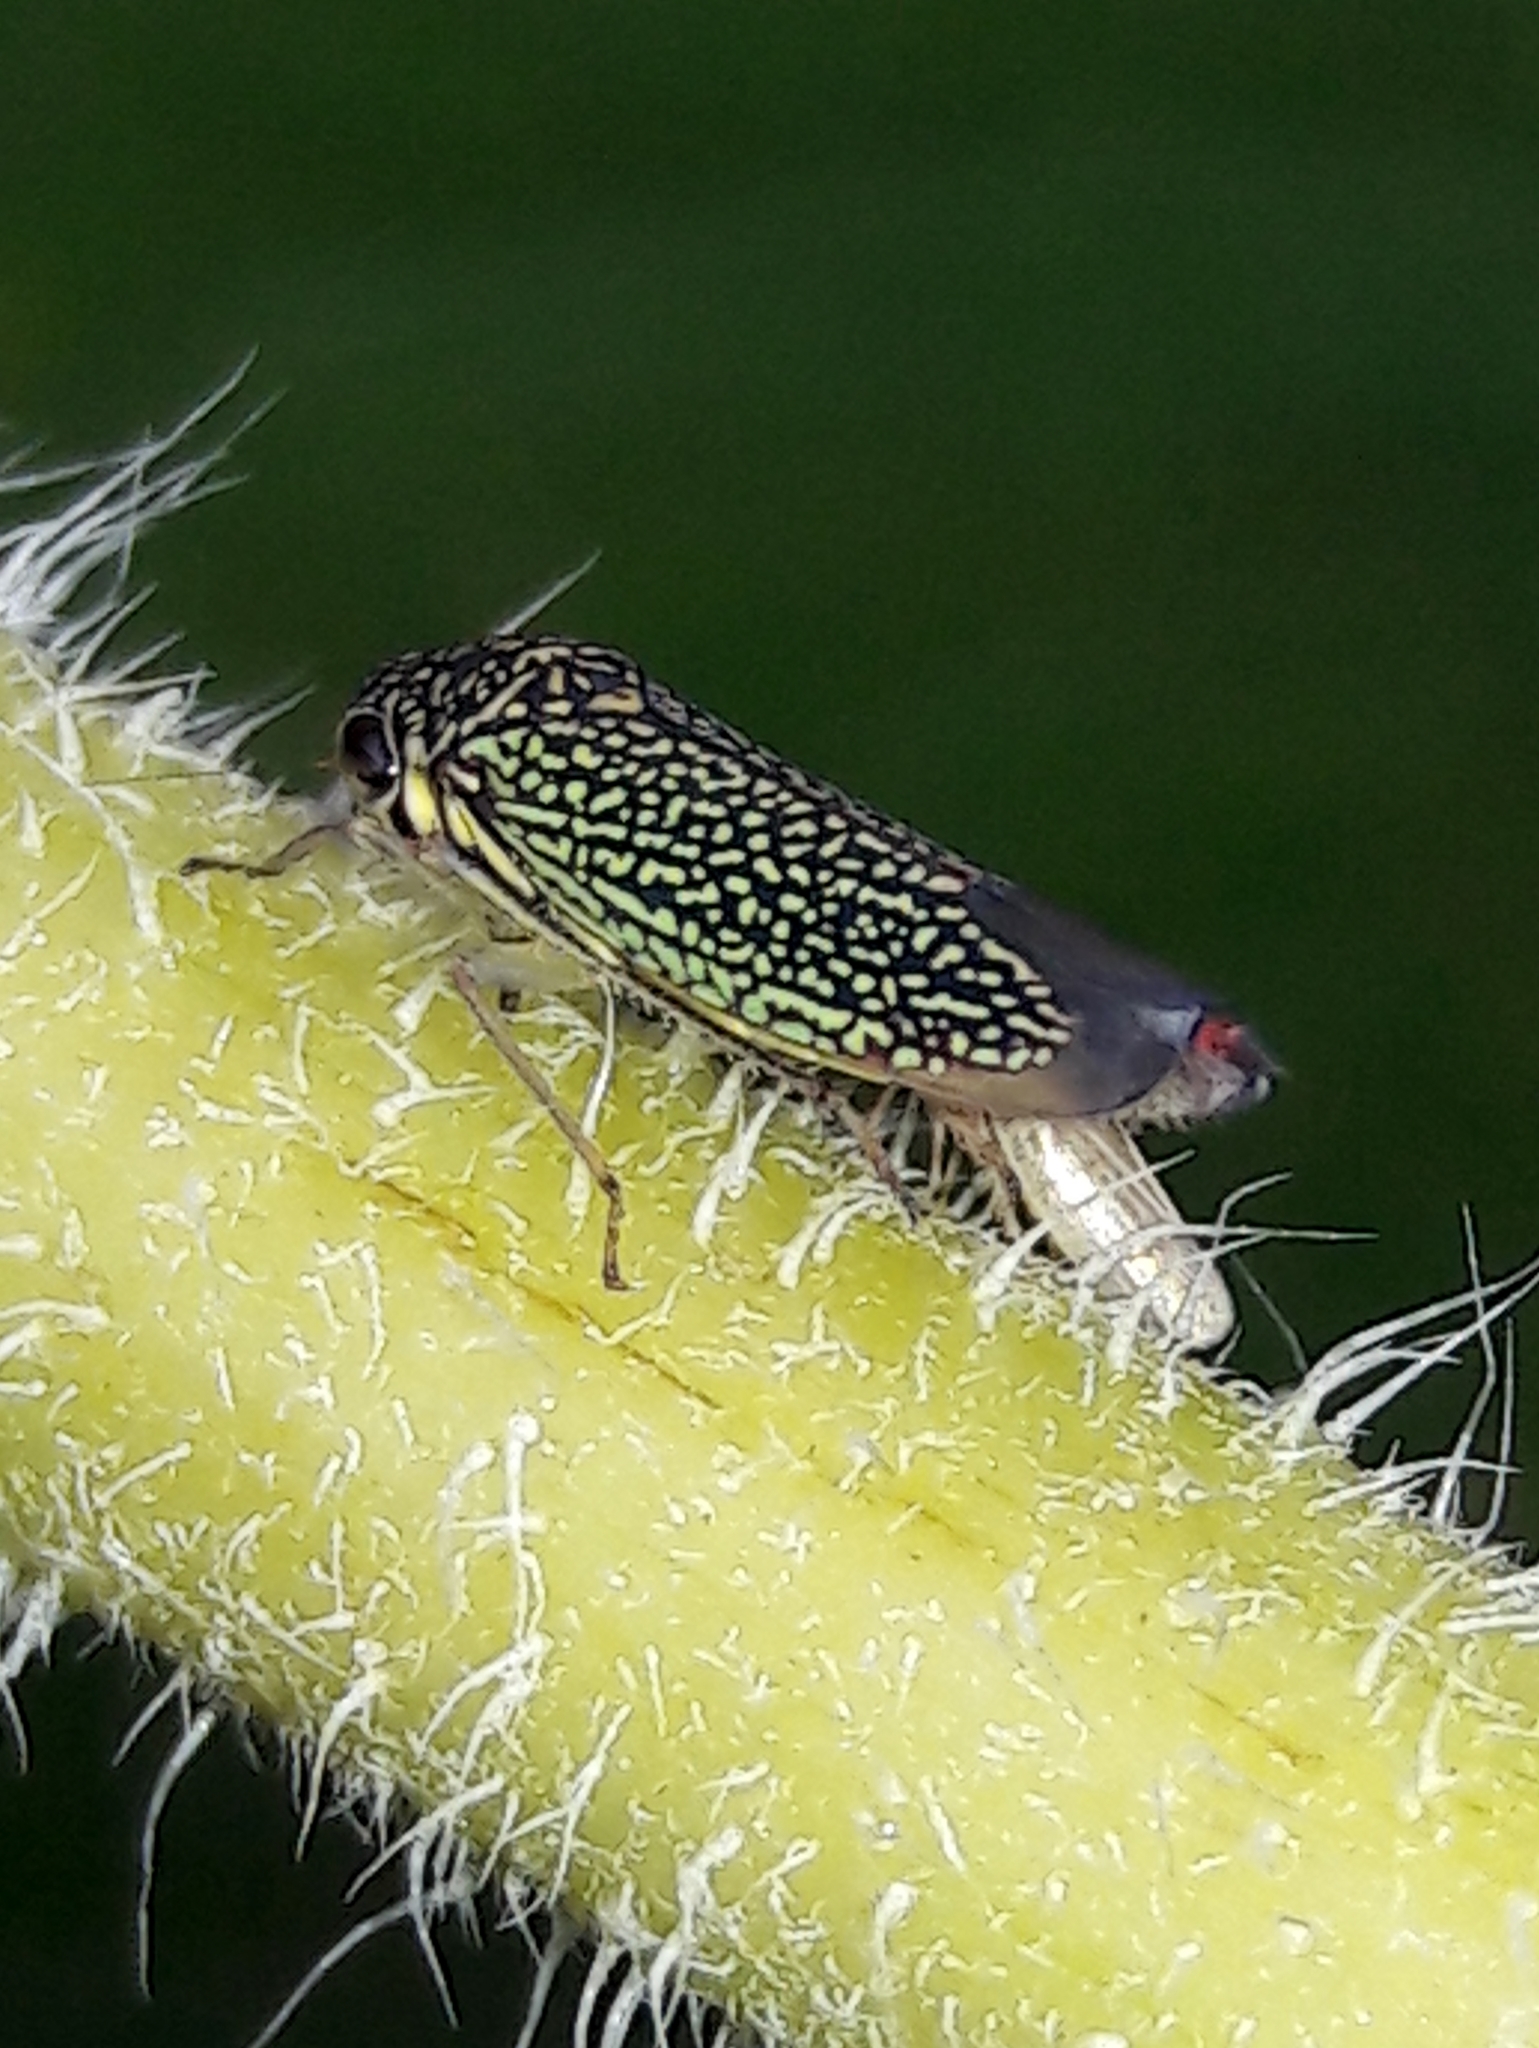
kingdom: Animalia
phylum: Arthropoda
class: Insecta
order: Hemiptera
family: Cicadellidae
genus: Macugonalia
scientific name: Macugonalia cavifrons
